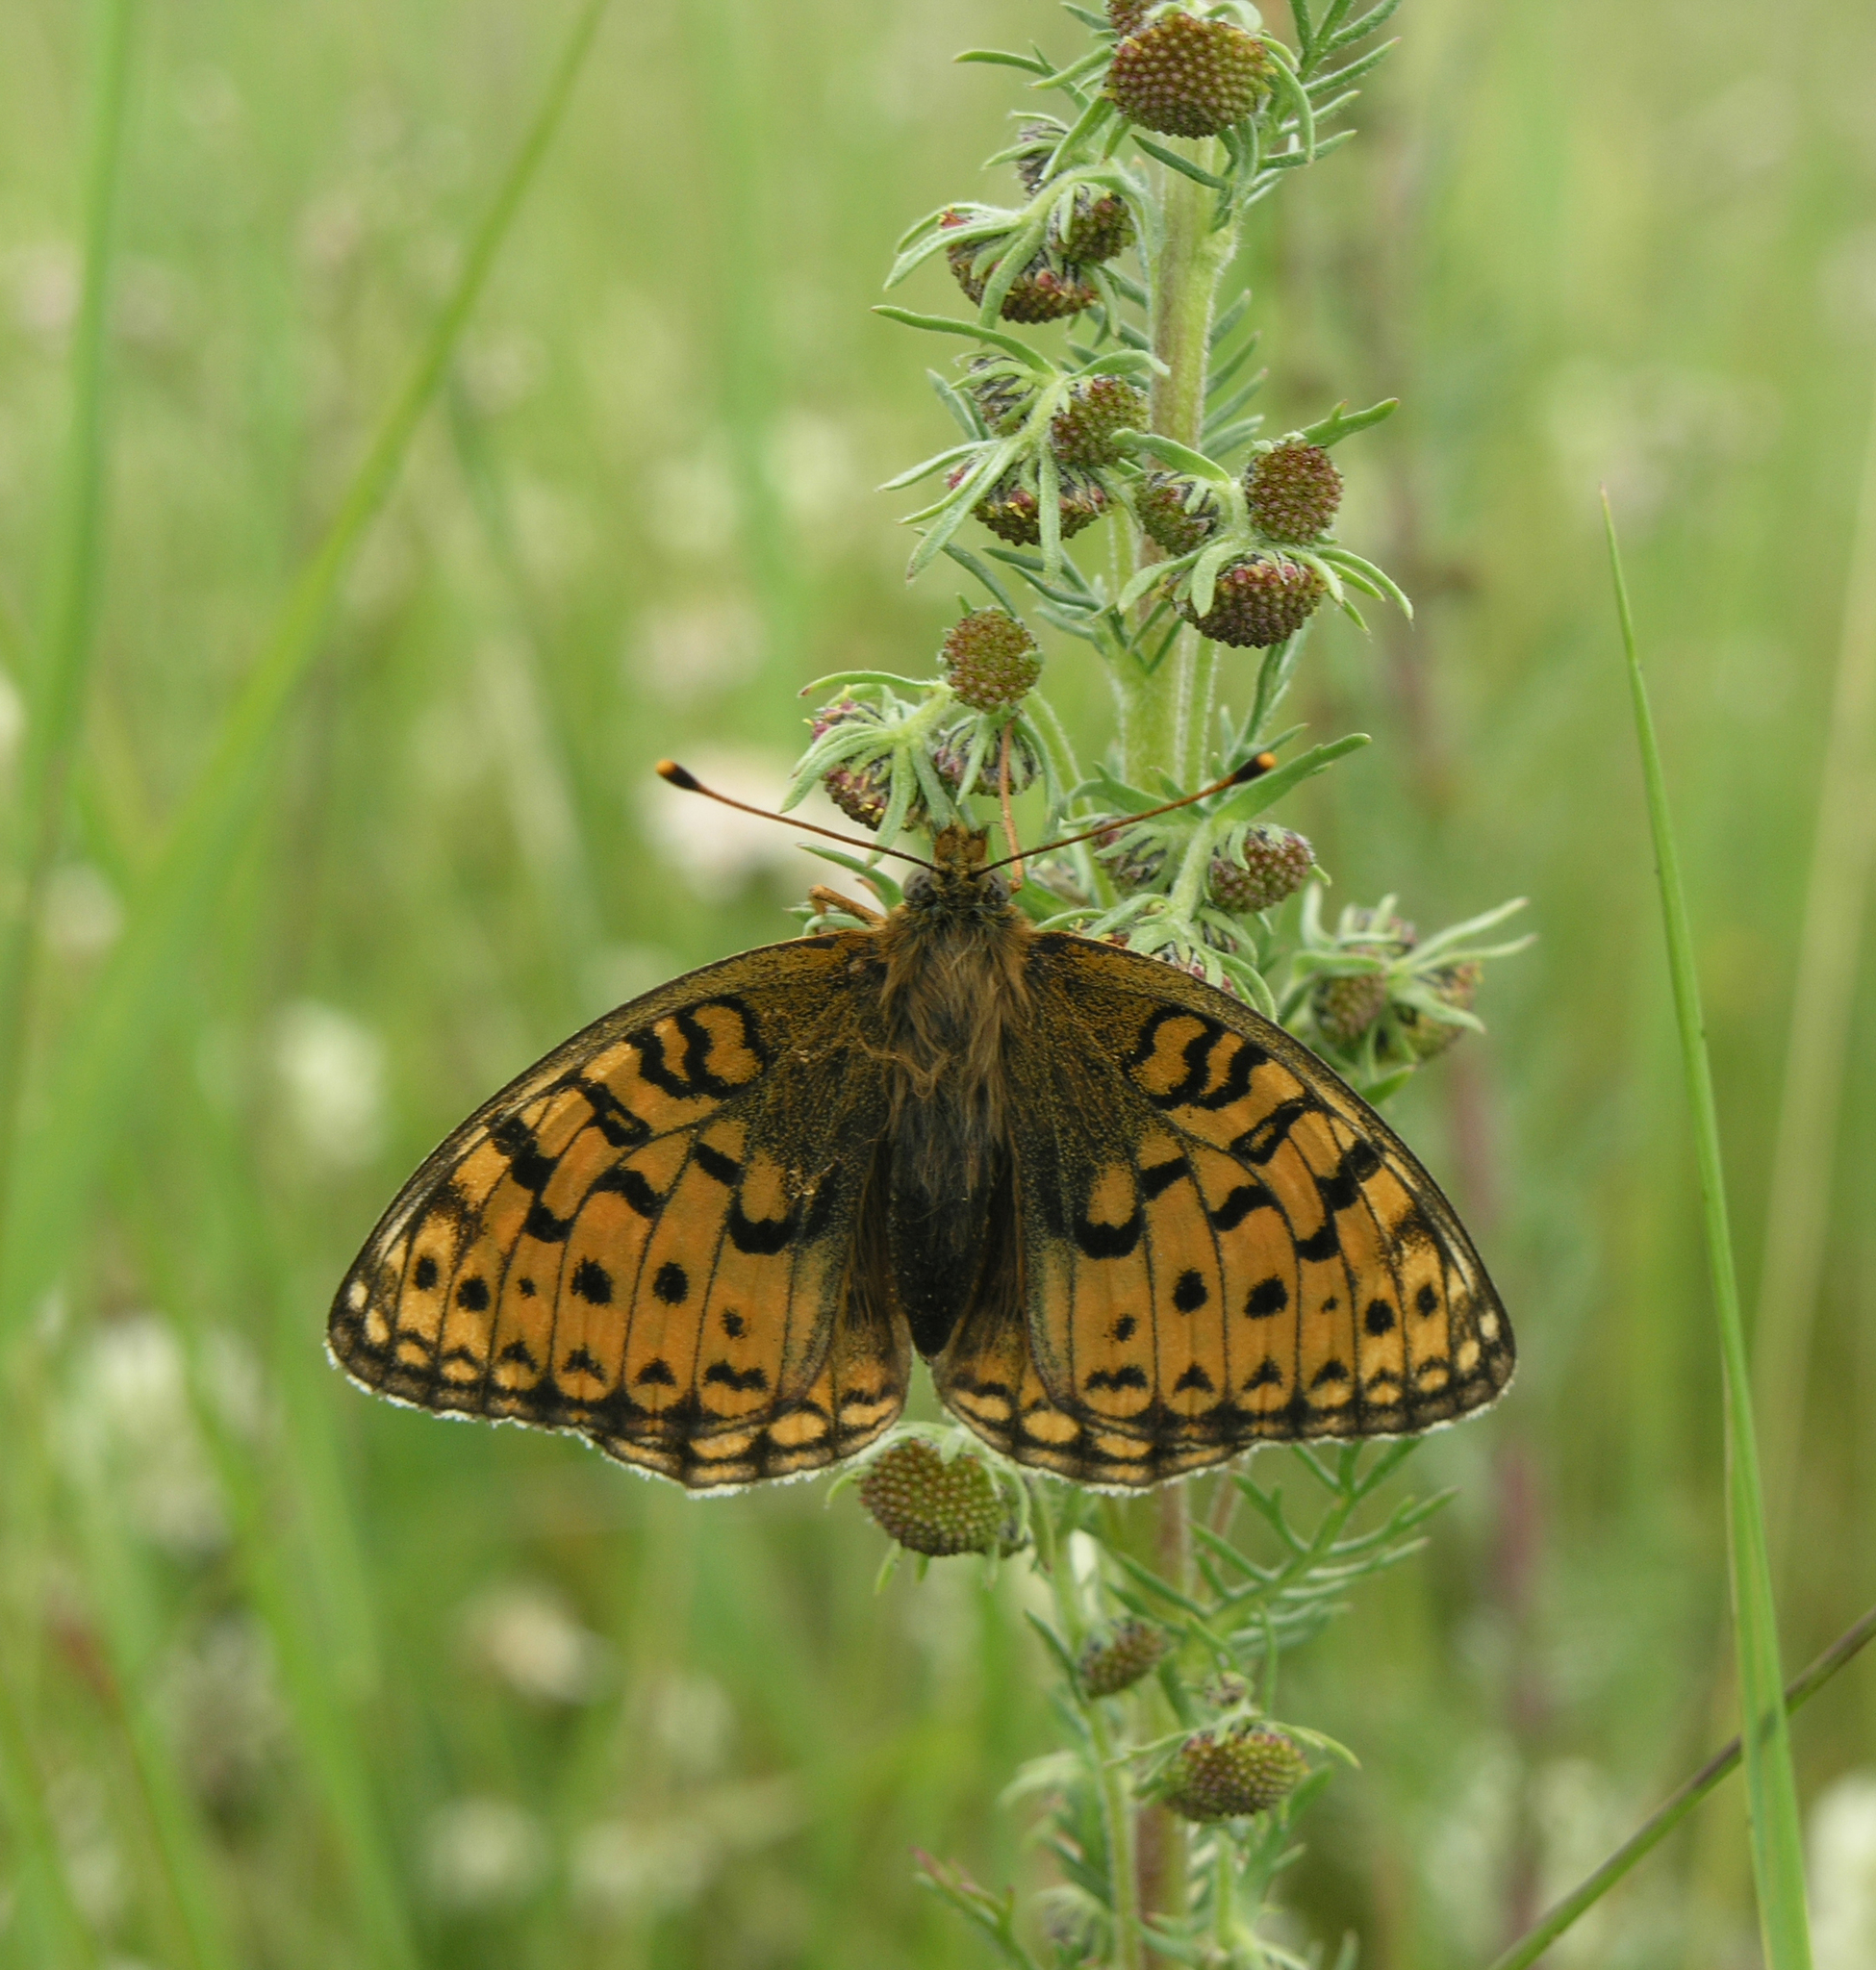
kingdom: Animalia
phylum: Arthropoda
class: Insecta
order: Lepidoptera
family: Nymphalidae
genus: Fabriciana
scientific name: Fabriciana niobe
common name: Niobe fritillary
